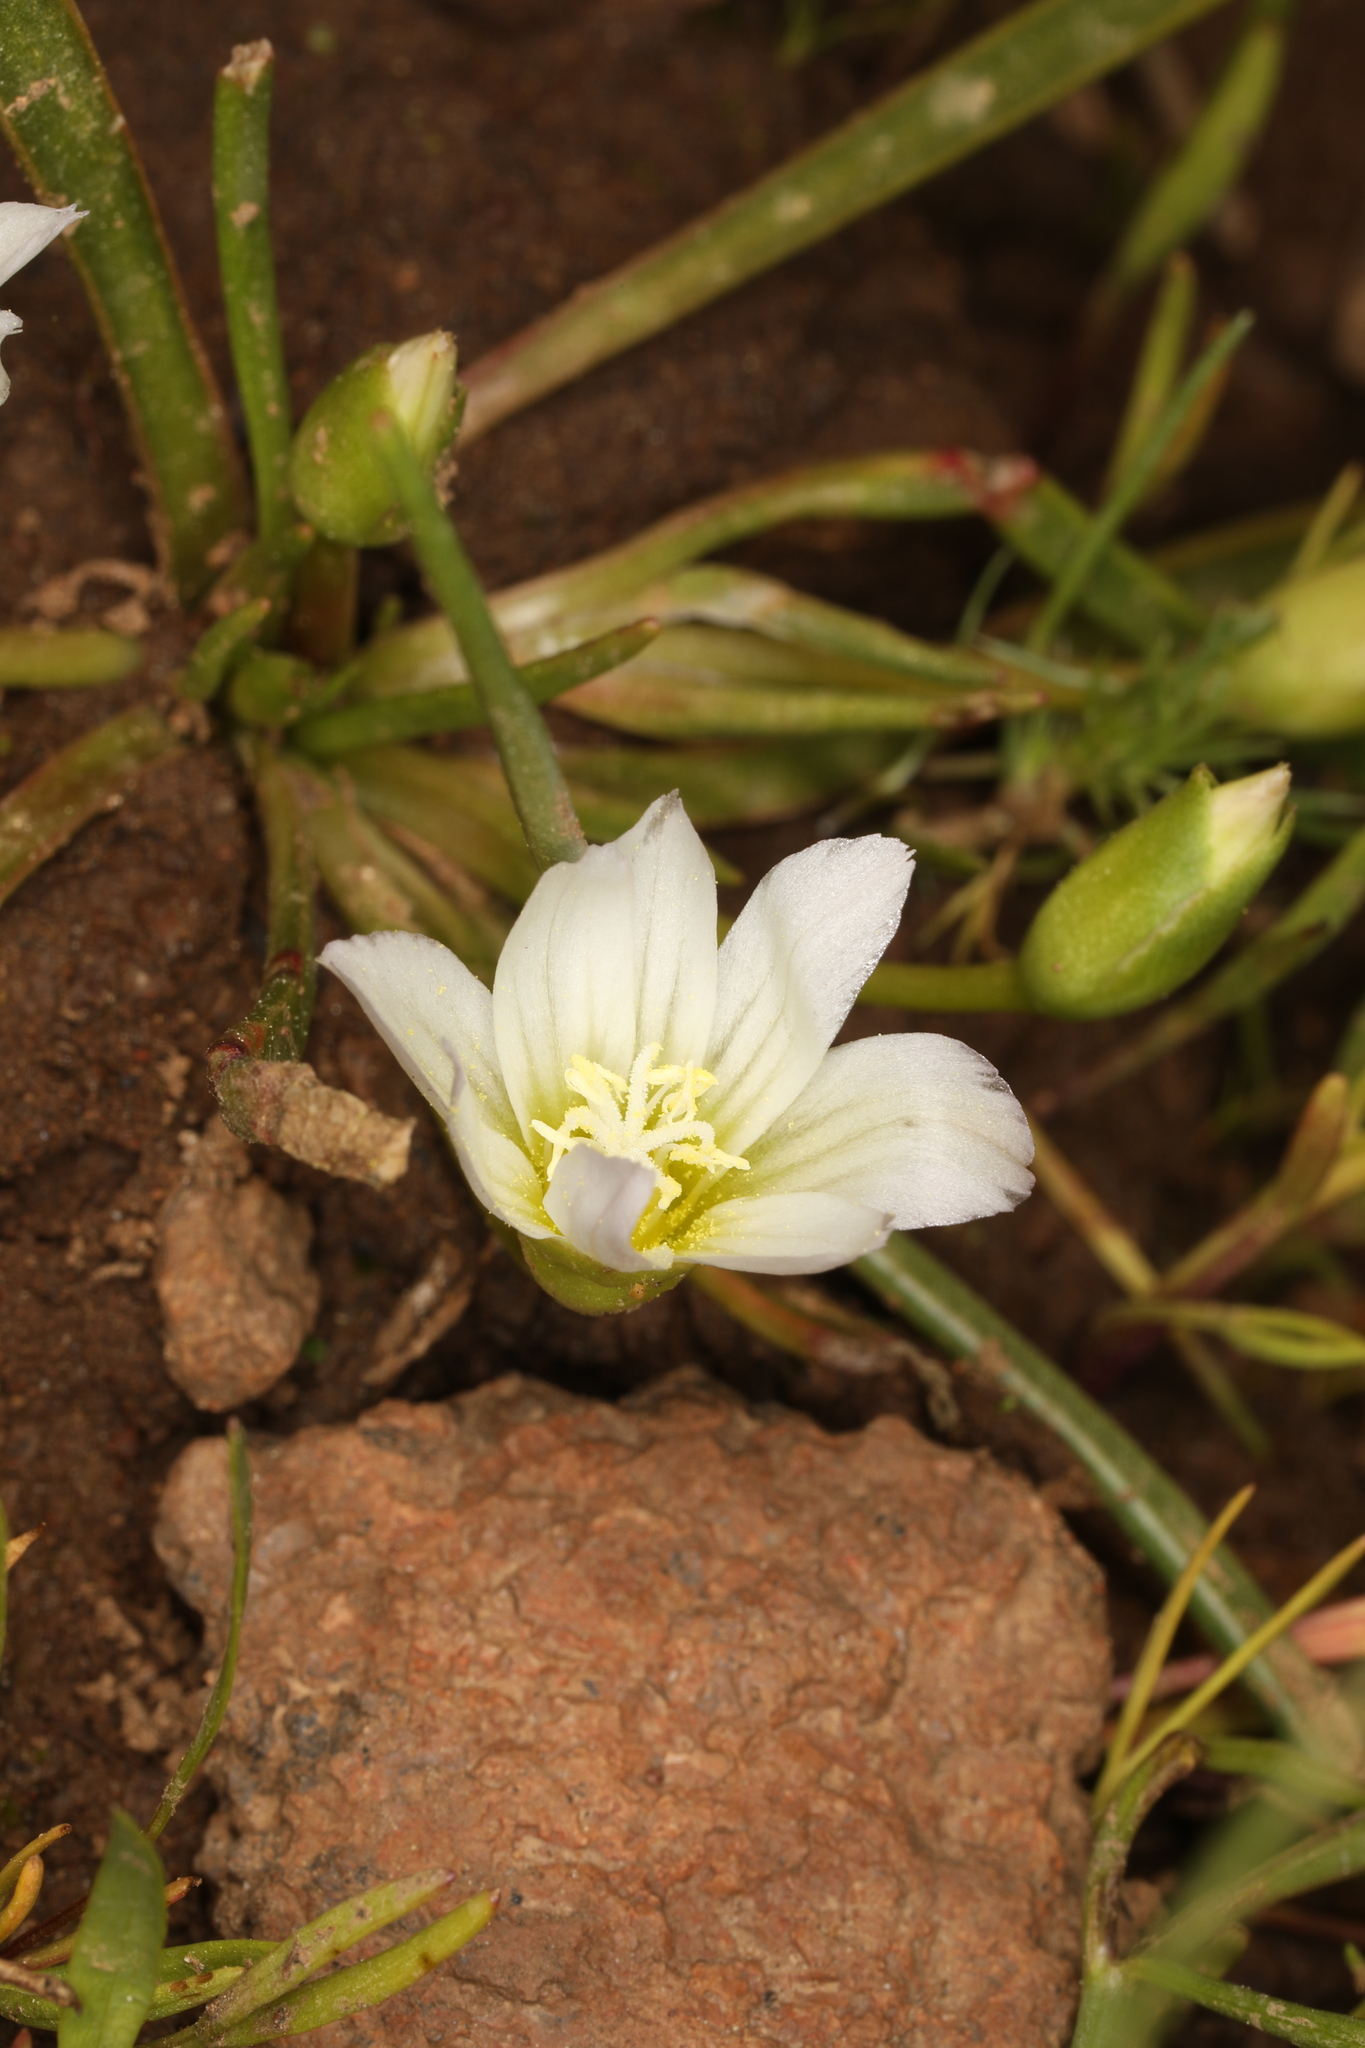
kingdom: Plantae
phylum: Tracheophyta
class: Magnoliopsida
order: Caryophyllales
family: Montiaceae
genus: Lewisia
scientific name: Lewisia nevadensis
